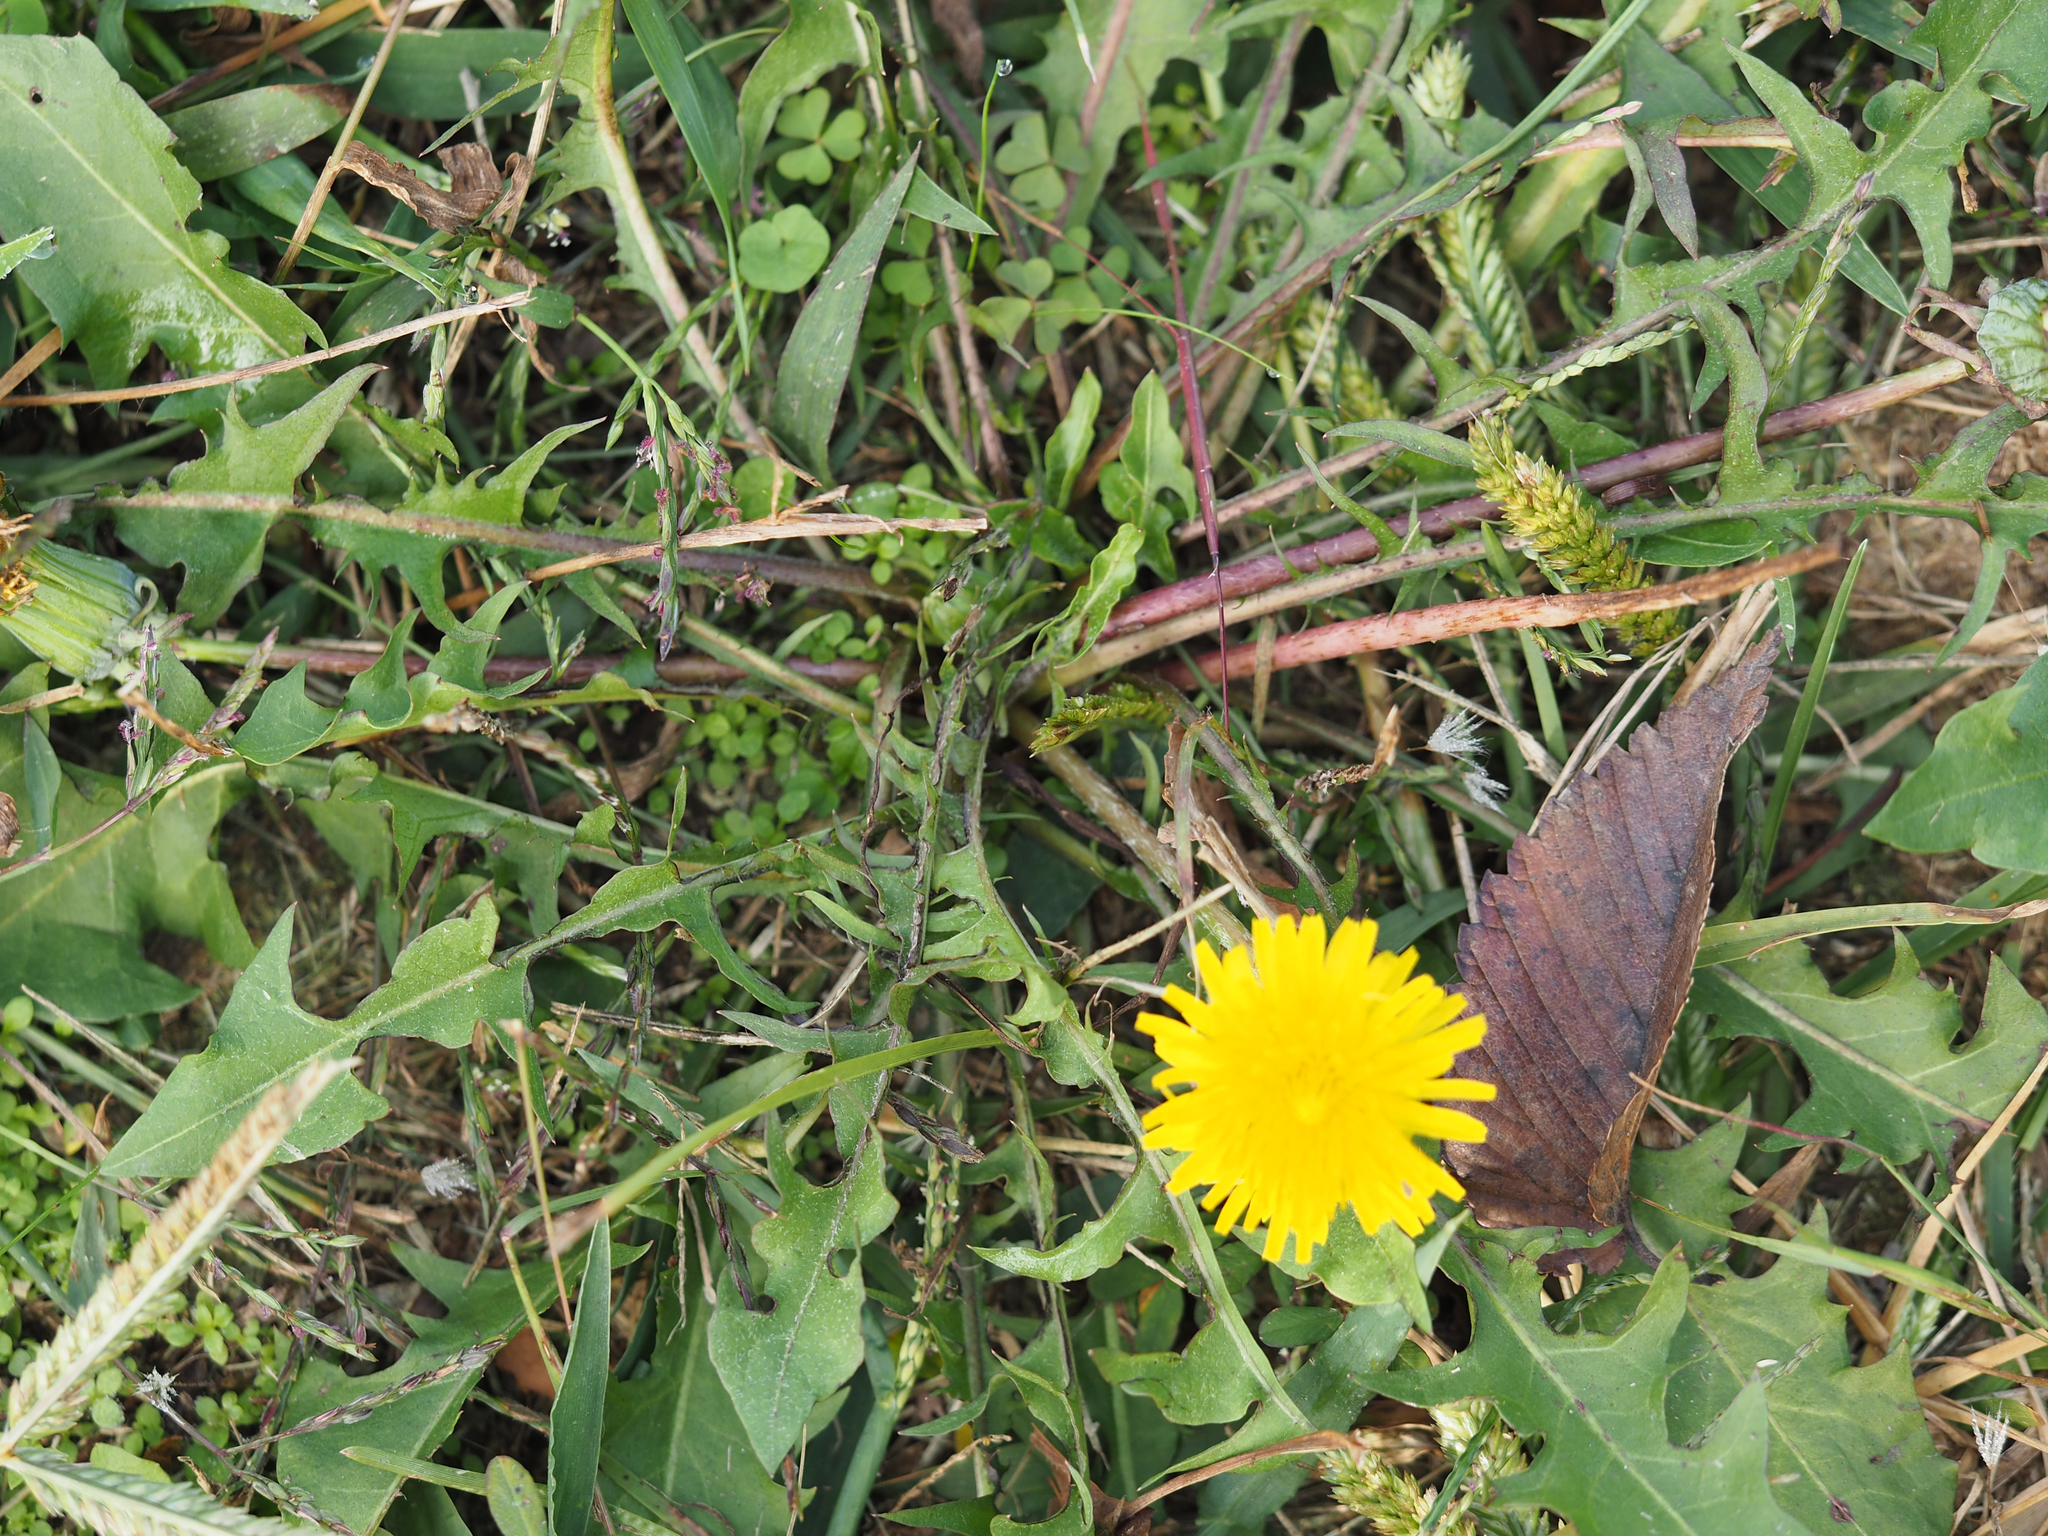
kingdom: Plantae
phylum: Tracheophyta
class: Magnoliopsida
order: Asterales
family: Asteraceae
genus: Taraxacum
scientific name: Taraxacum officinale
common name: Common dandelion
